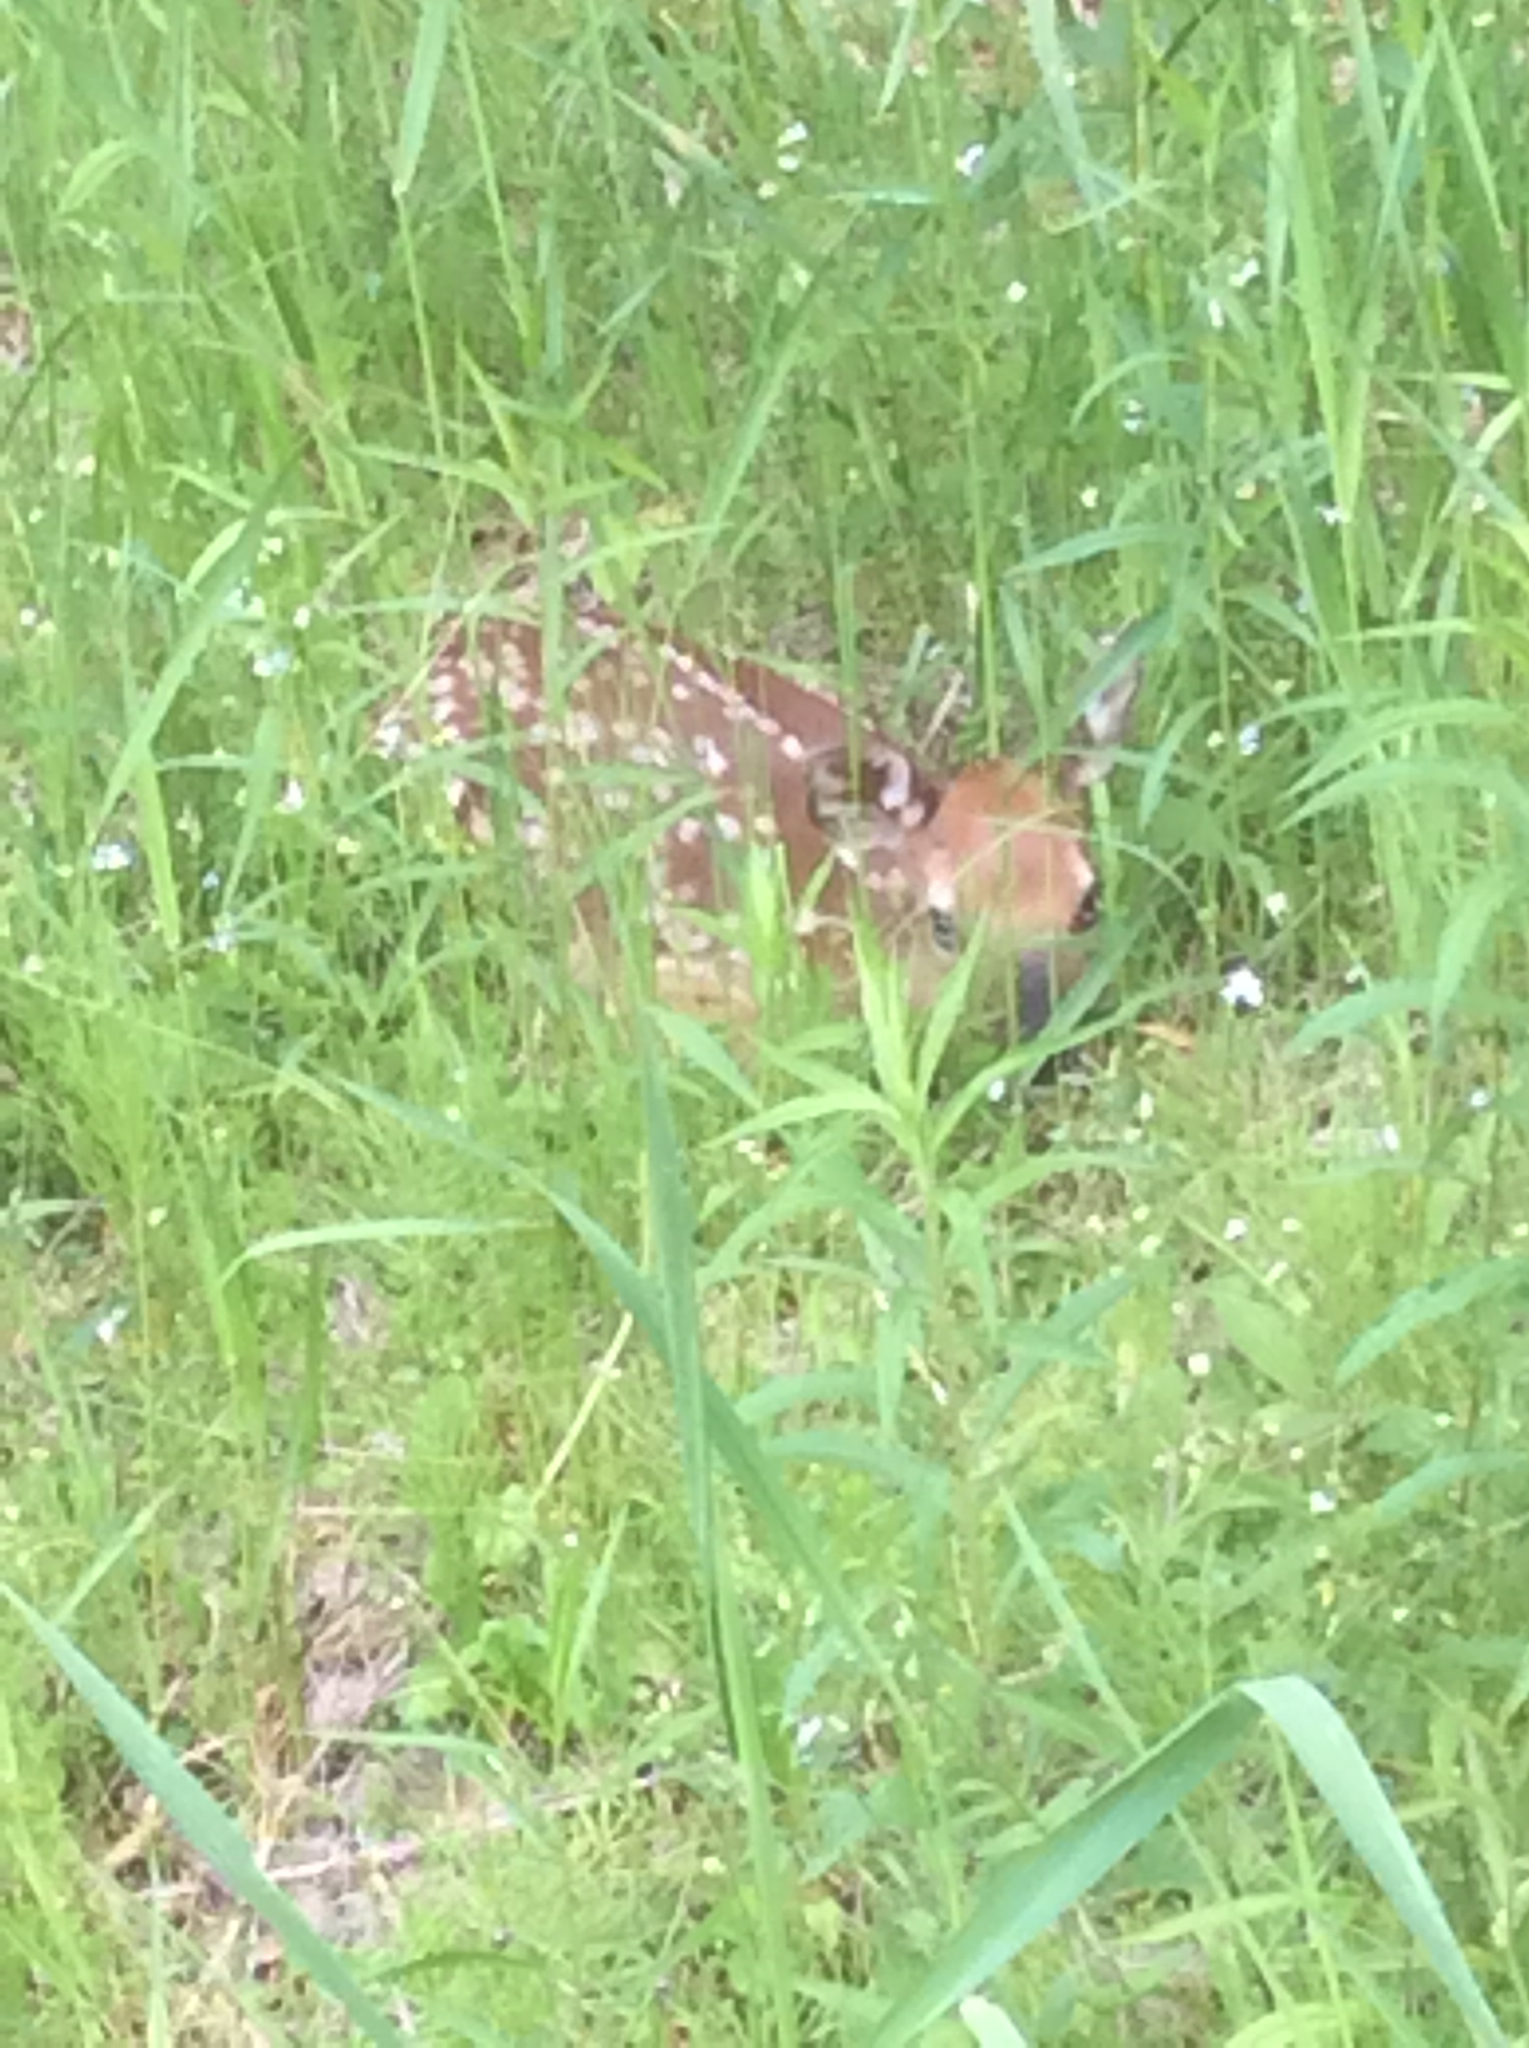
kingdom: Animalia
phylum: Chordata
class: Mammalia
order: Artiodactyla
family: Cervidae
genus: Odocoileus
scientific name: Odocoileus virginianus
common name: White-tailed deer
